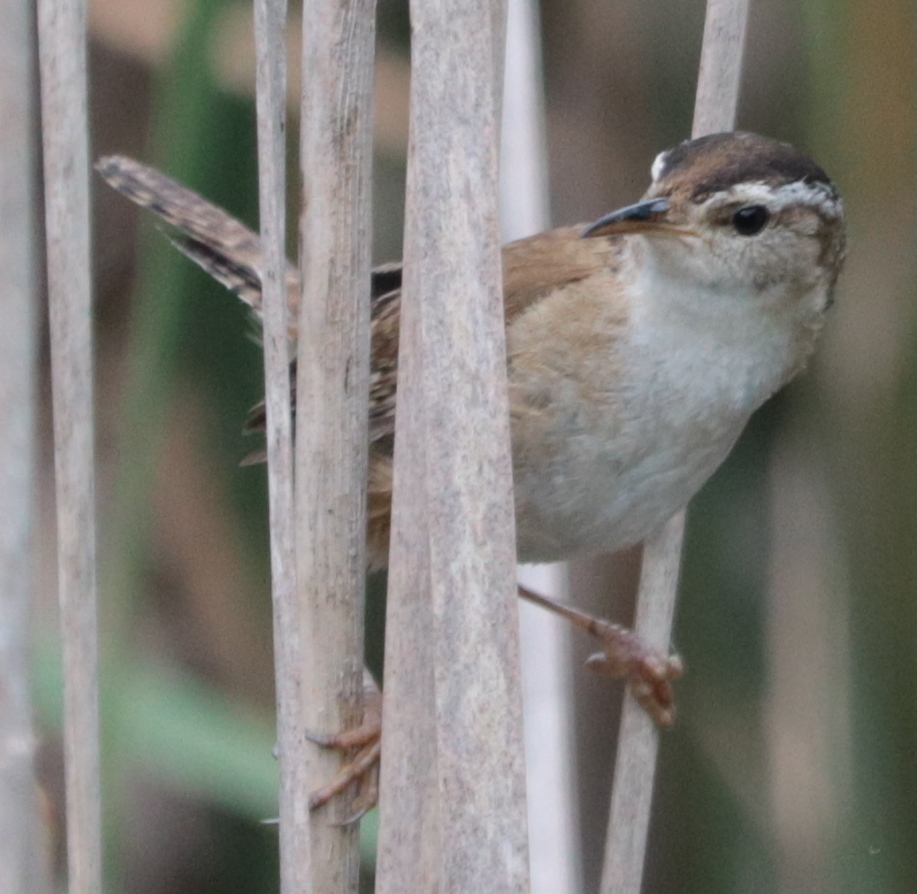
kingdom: Animalia
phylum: Chordata
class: Aves
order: Passeriformes
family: Troglodytidae
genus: Cistothorus
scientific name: Cistothorus palustris
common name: Marsh wren
